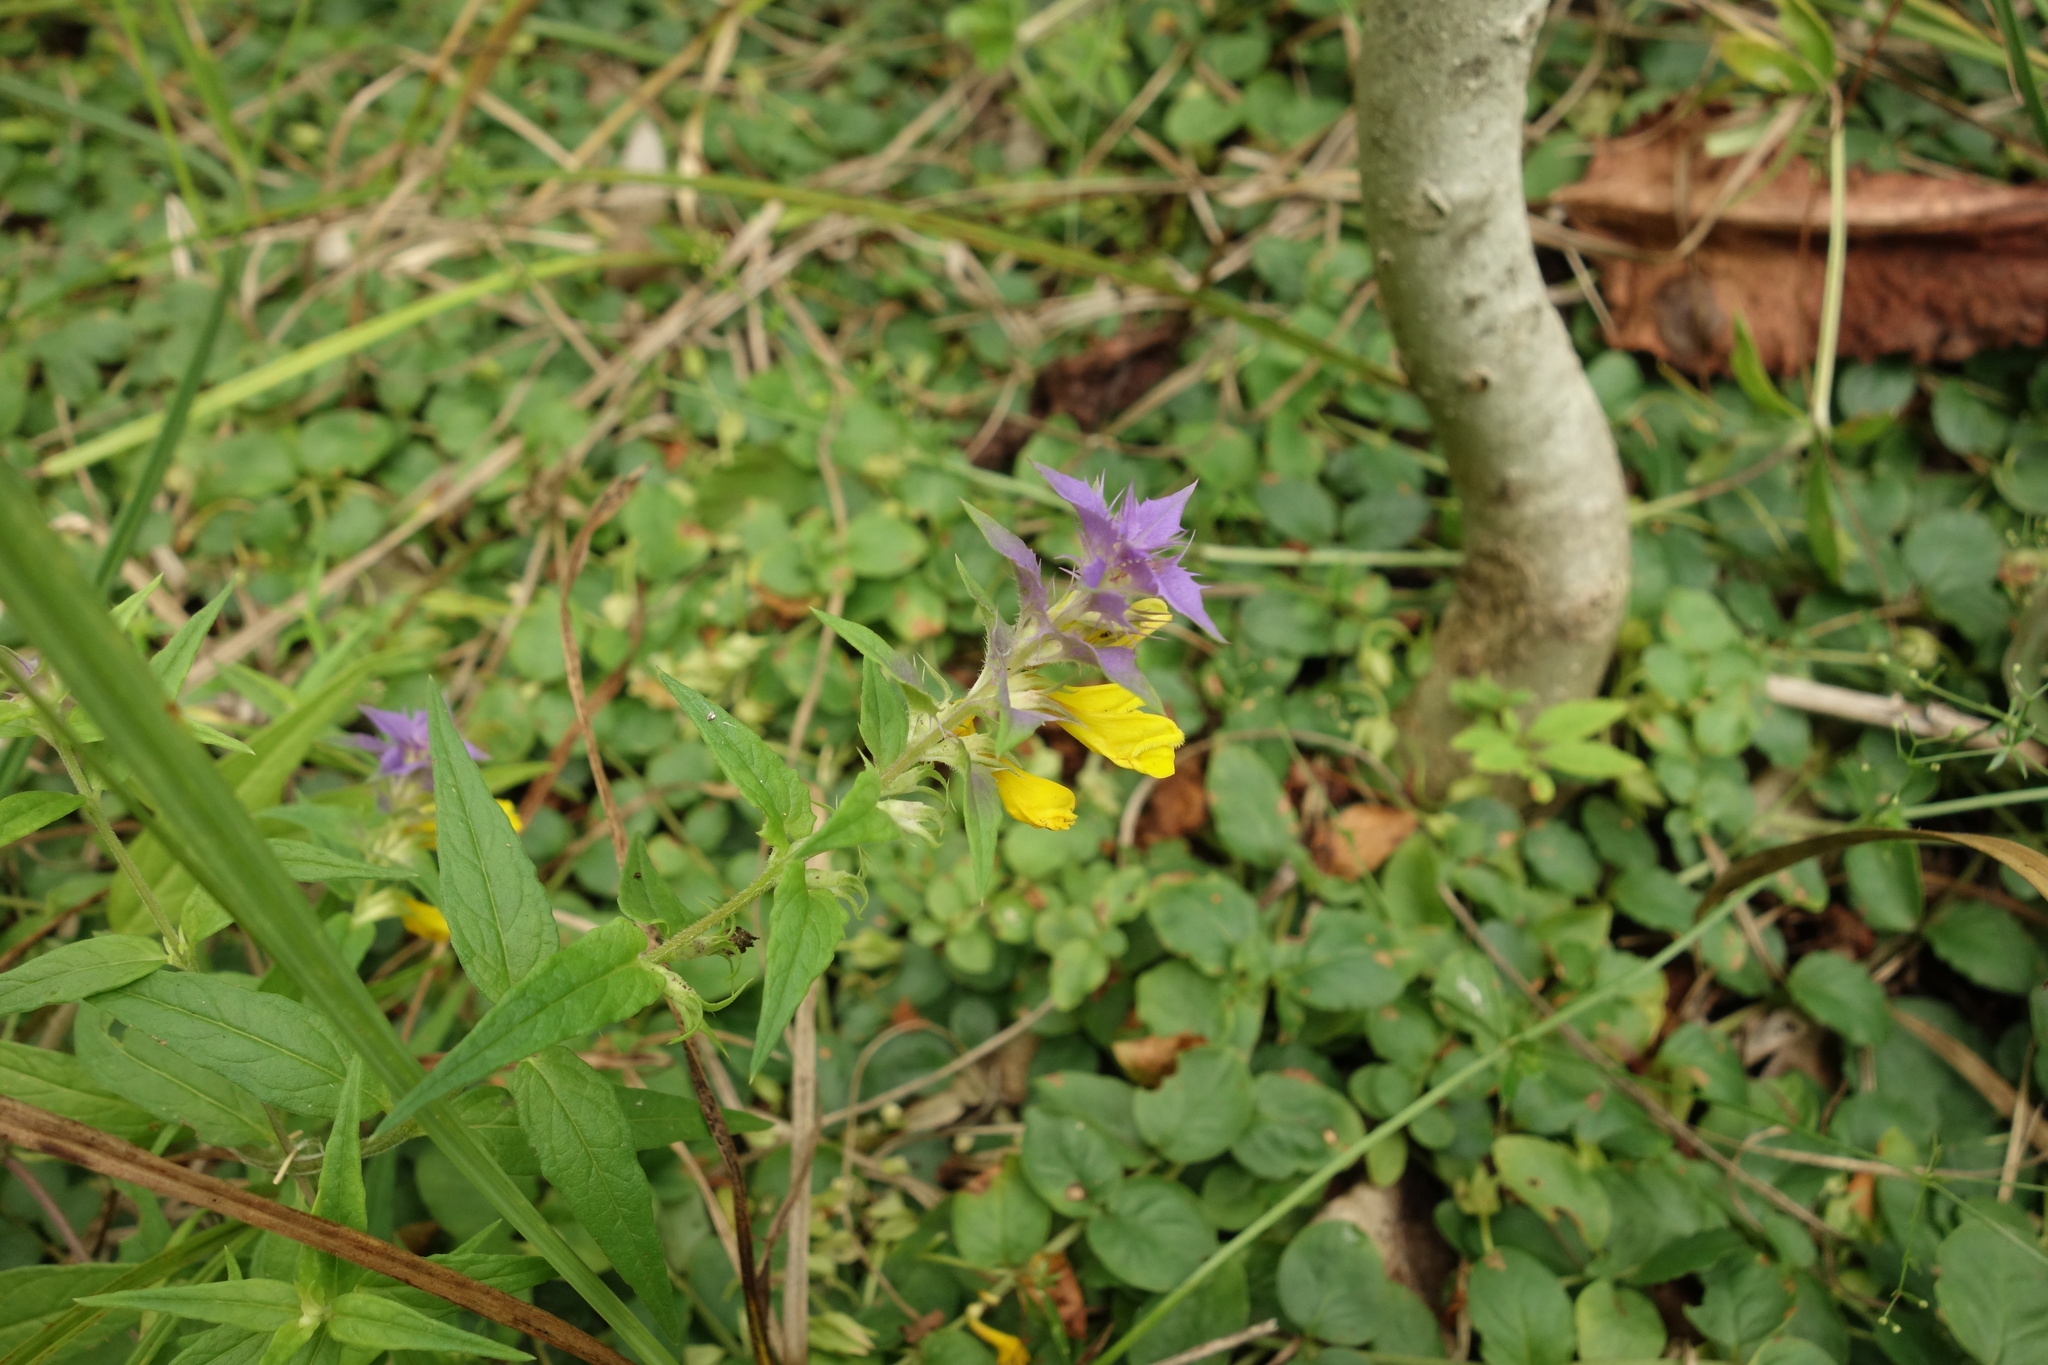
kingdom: Plantae
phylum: Tracheophyta
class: Magnoliopsida
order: Lamiales
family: Orobanchaceae
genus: Melampyrum
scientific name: Melampyrum nemorosum
